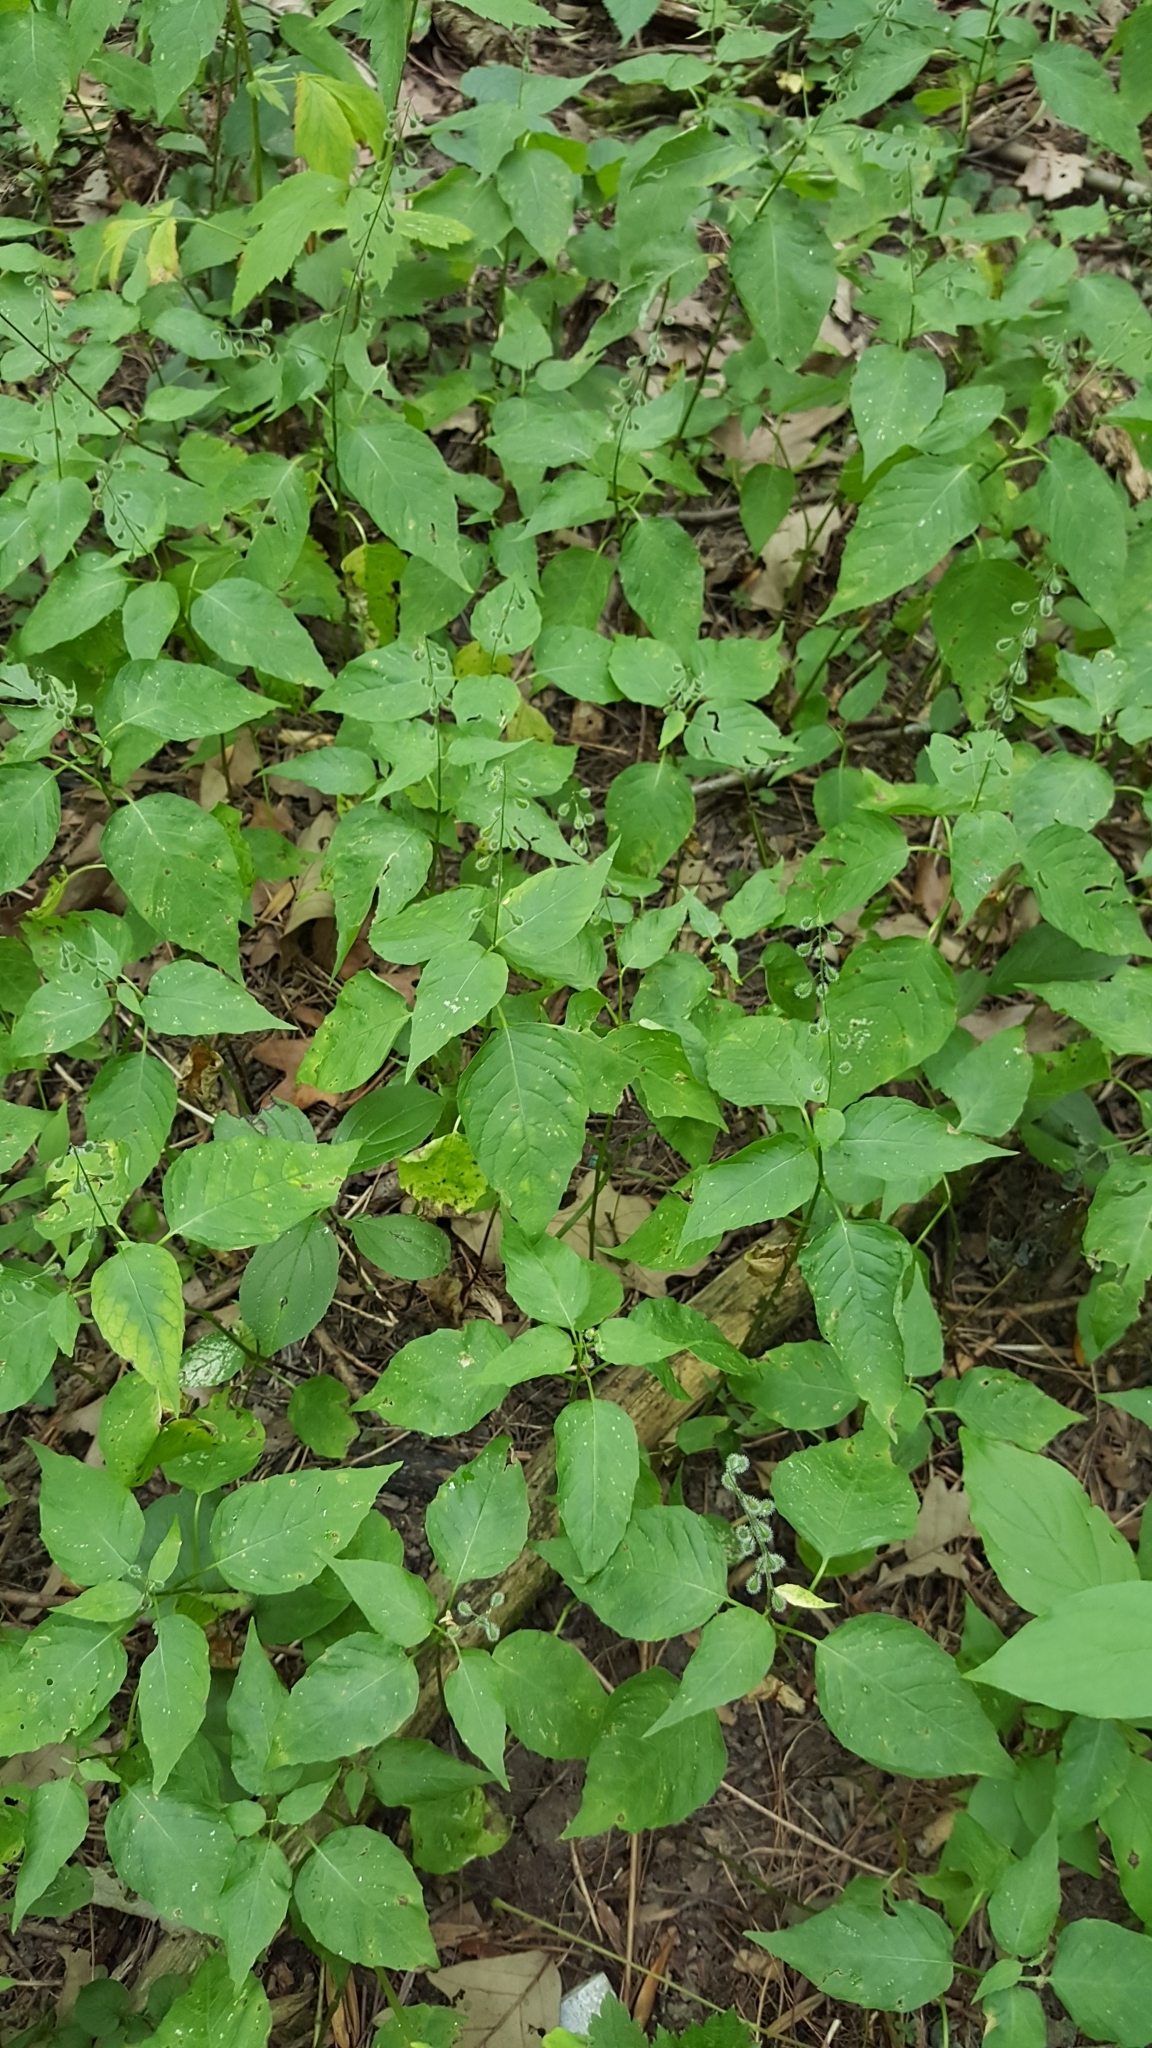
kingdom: Plantae
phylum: Tracheophyta
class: Magnoliopsida
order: Myrtales
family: Onagraceae
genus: Circaea
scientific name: Circaea canadensis
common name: Broad-leaved enchanter's nightshade
